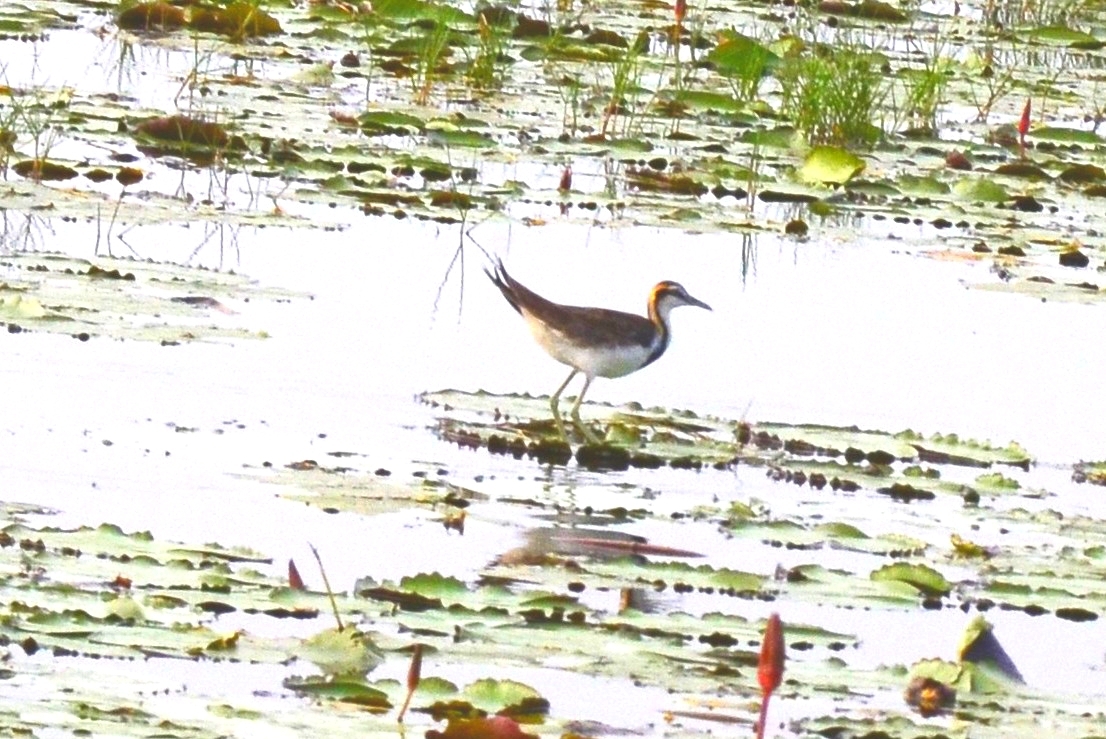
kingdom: Animalia
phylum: Chordata
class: Aves
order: Charadriiformes
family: Jacanidae
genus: Hydrophasianus
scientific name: Hydrophasianus chirurgus
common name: Pheasant-tailed jacana
